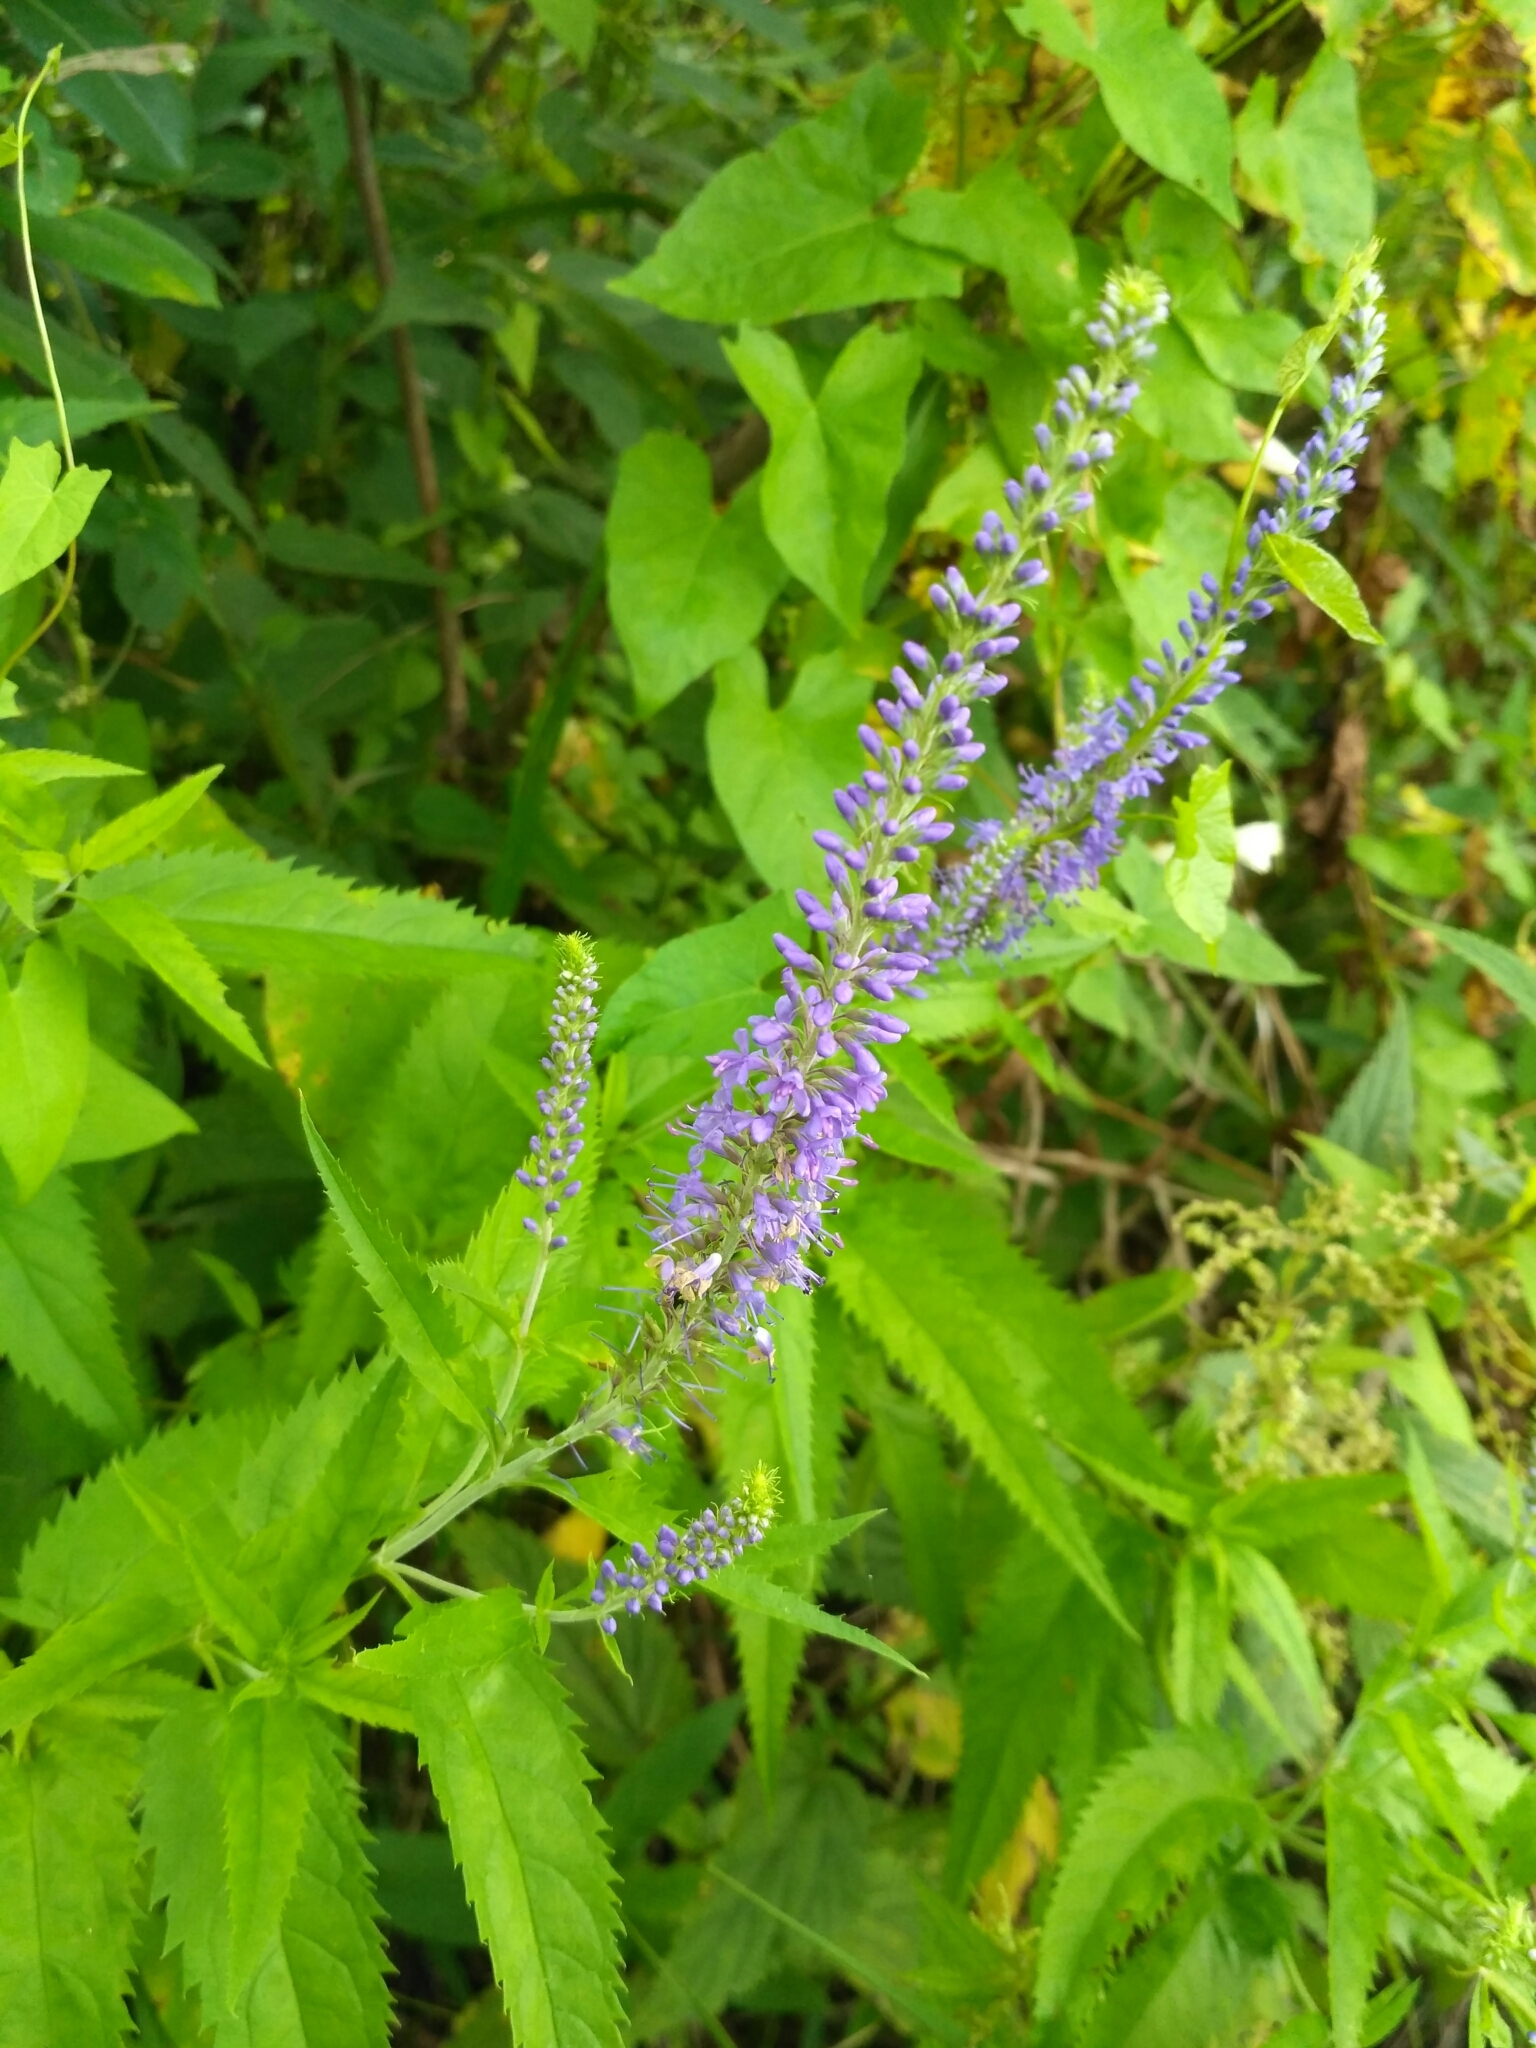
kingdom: Plantae
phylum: Tracheophyta
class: Magnoliopsida
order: Lamiales
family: Plantaginaceae
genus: Veronica
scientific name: Veronica longifolia
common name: Garden speedwell
